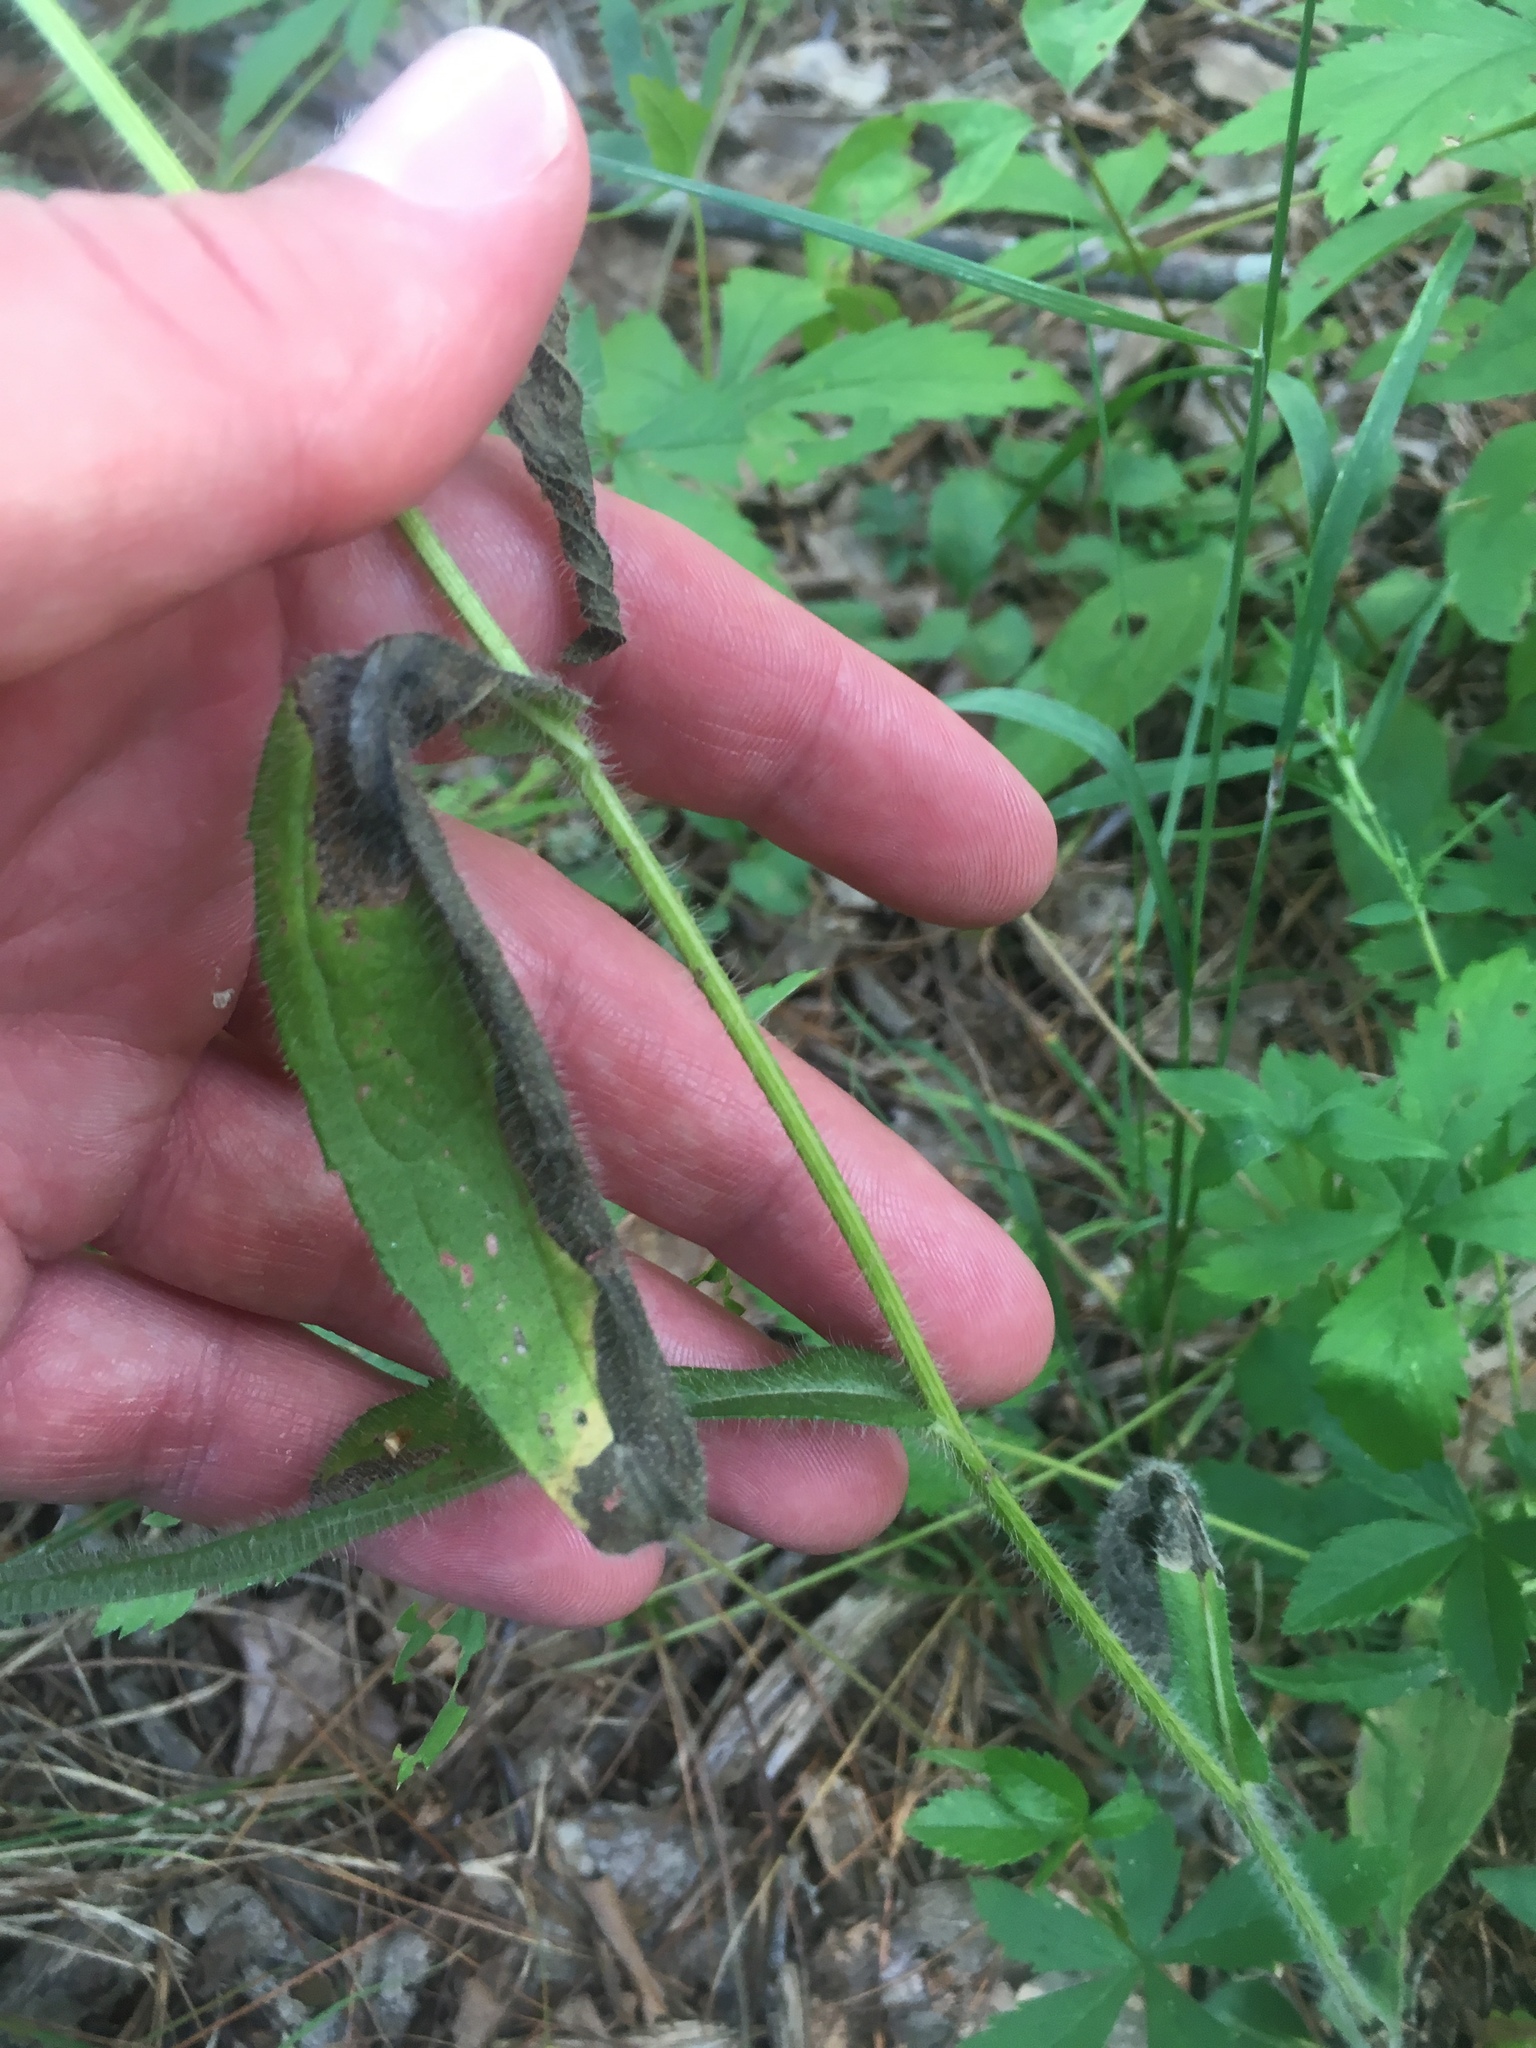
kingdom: Plantae
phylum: Tracheophyta
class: Magnoliopsida
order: Asterales
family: Asteraceae
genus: Rudbeckia
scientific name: Rudbeckia hirta
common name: Black-eyed-susan
